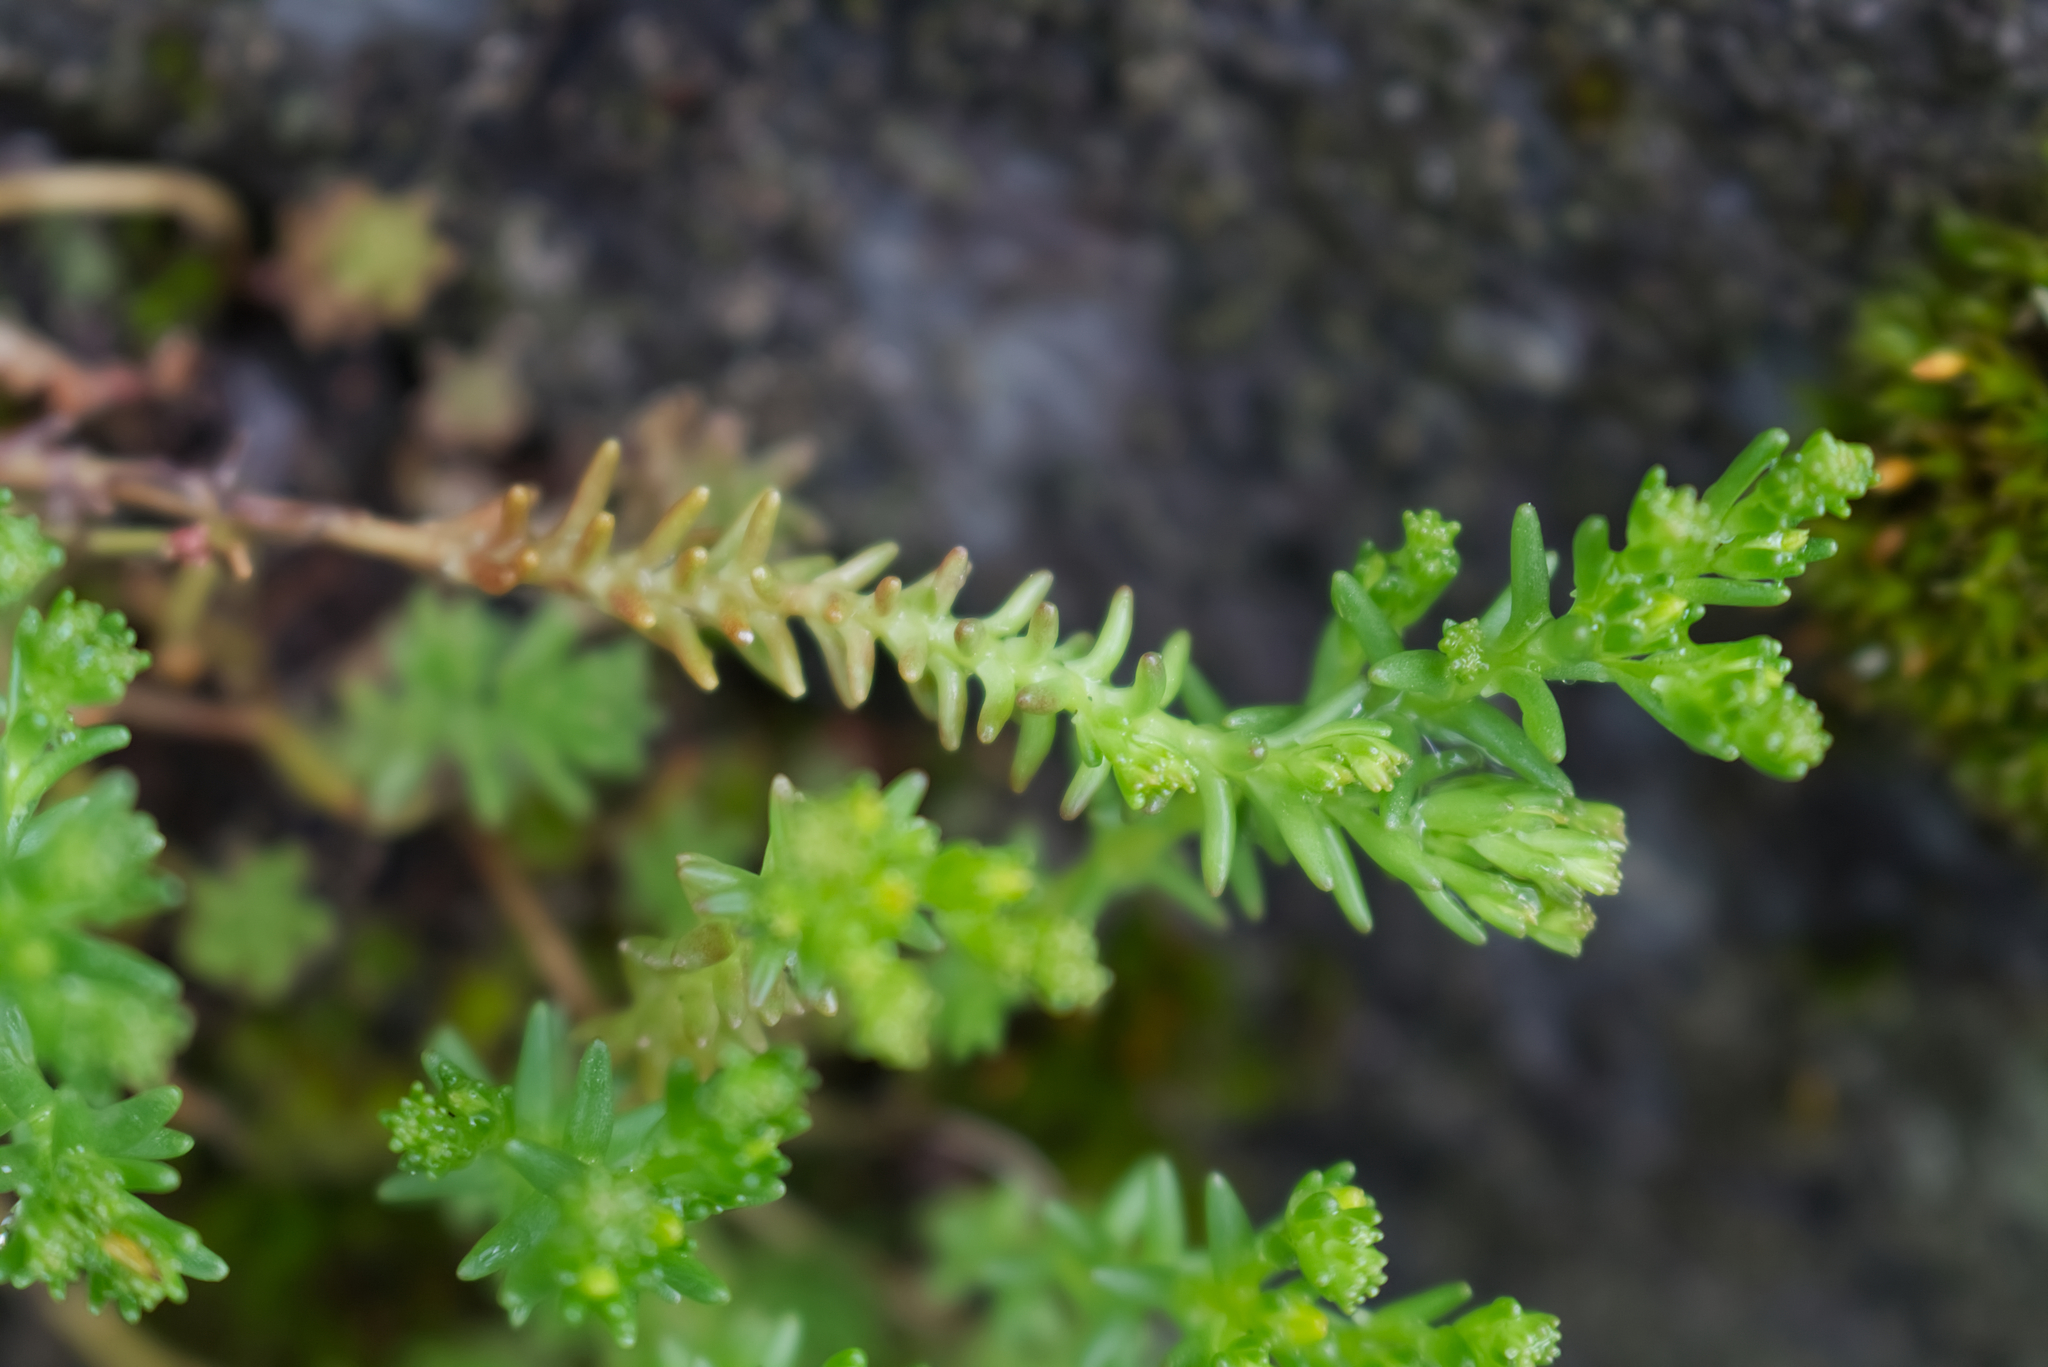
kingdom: Plantae
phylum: Tracheophyta
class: Magnoliopsida
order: Saxifragales
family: Crassulaceae
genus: Sedum
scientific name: Sedum sexangulare
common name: Tasteless stonecrop
